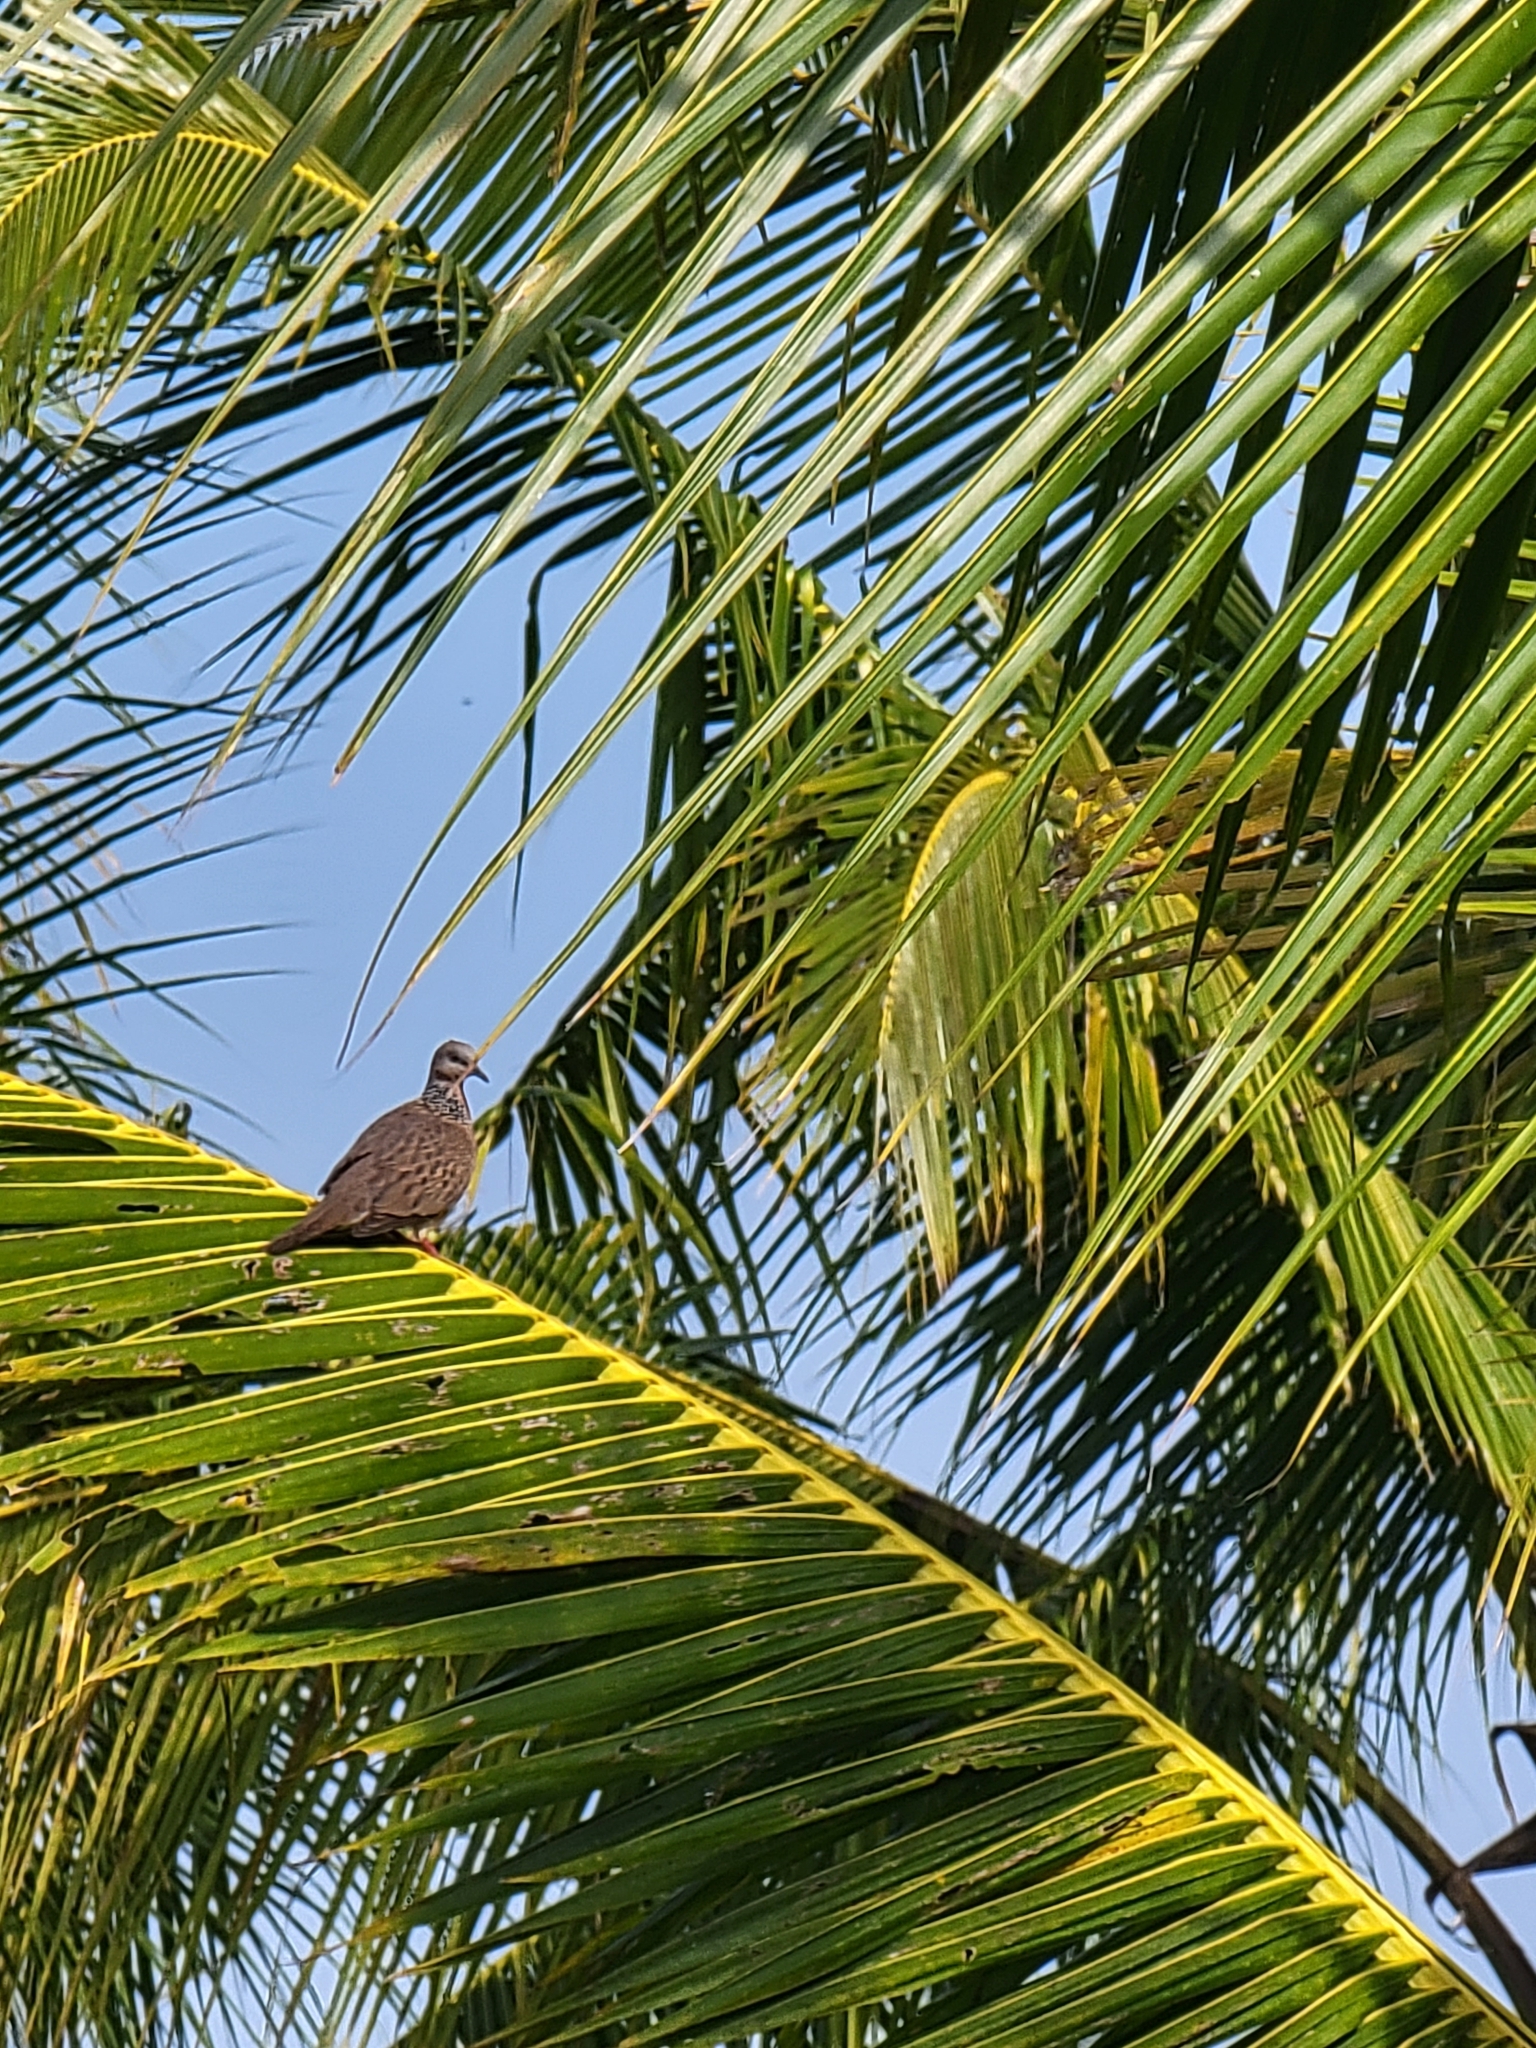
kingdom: Animalia
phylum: Chordata
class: Aves
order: Columbiformes
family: Columbidae
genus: Spilopelia
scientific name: Spilopelia chinensis
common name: Spotted dove
